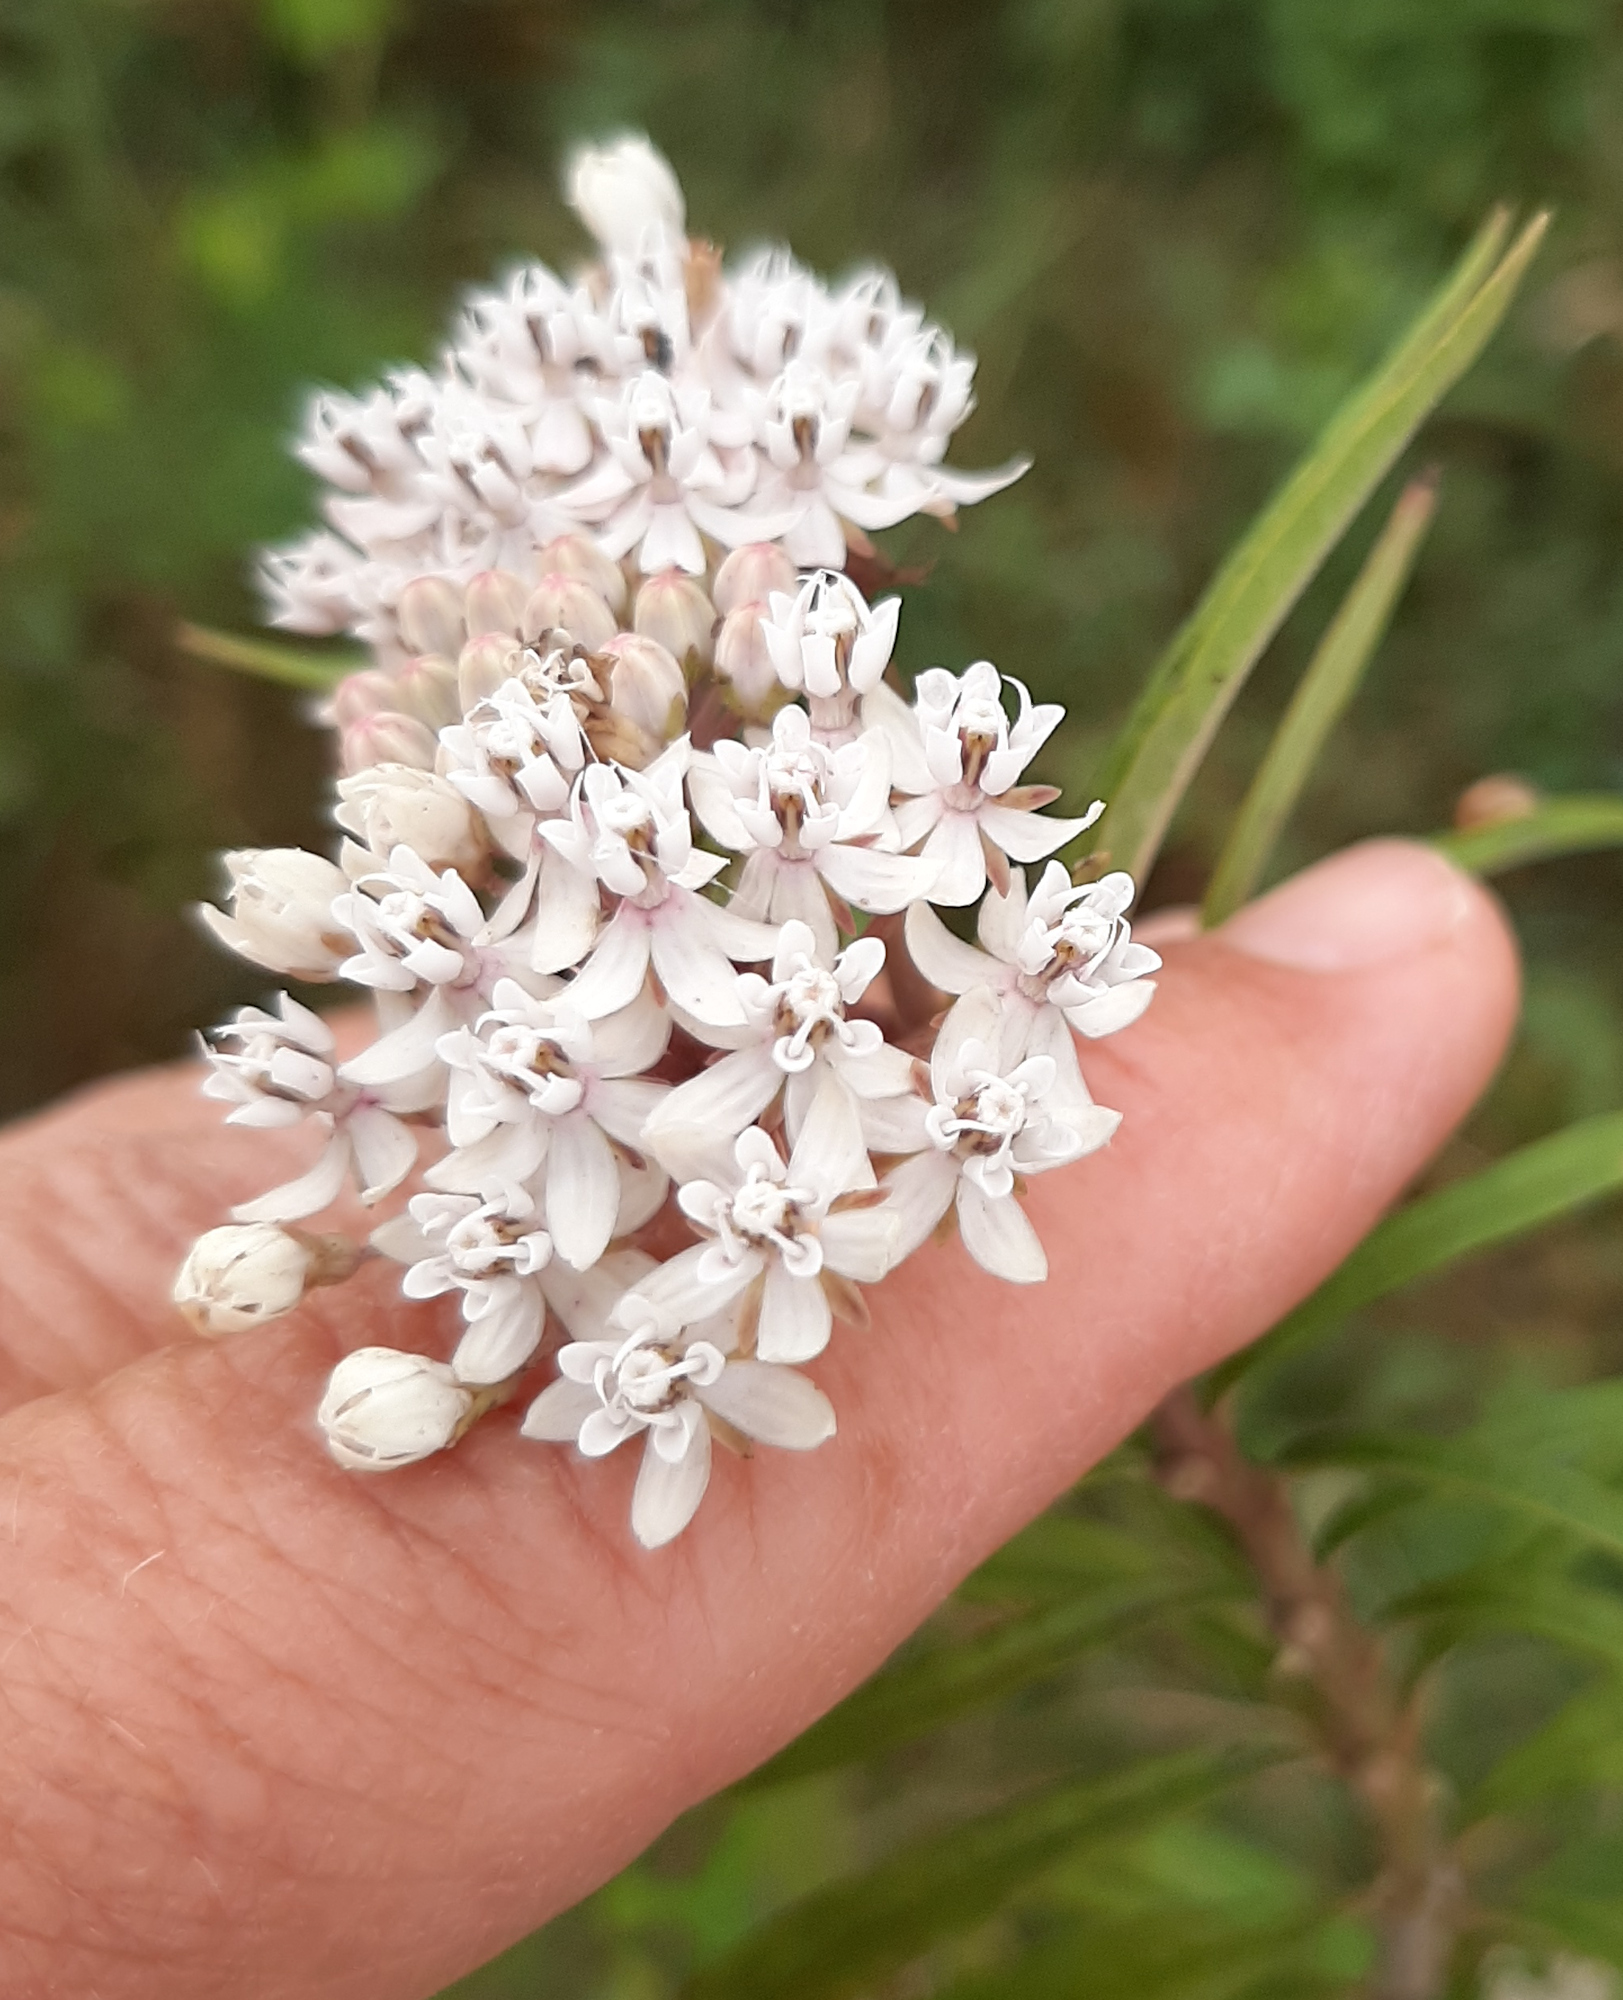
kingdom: Plantae
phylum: Tracheophyta
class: Magnoliopsida
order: Gentianales
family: Apocynaceae
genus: Asclepias
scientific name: Asclepias perennis
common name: Smooth-seed milkweed
